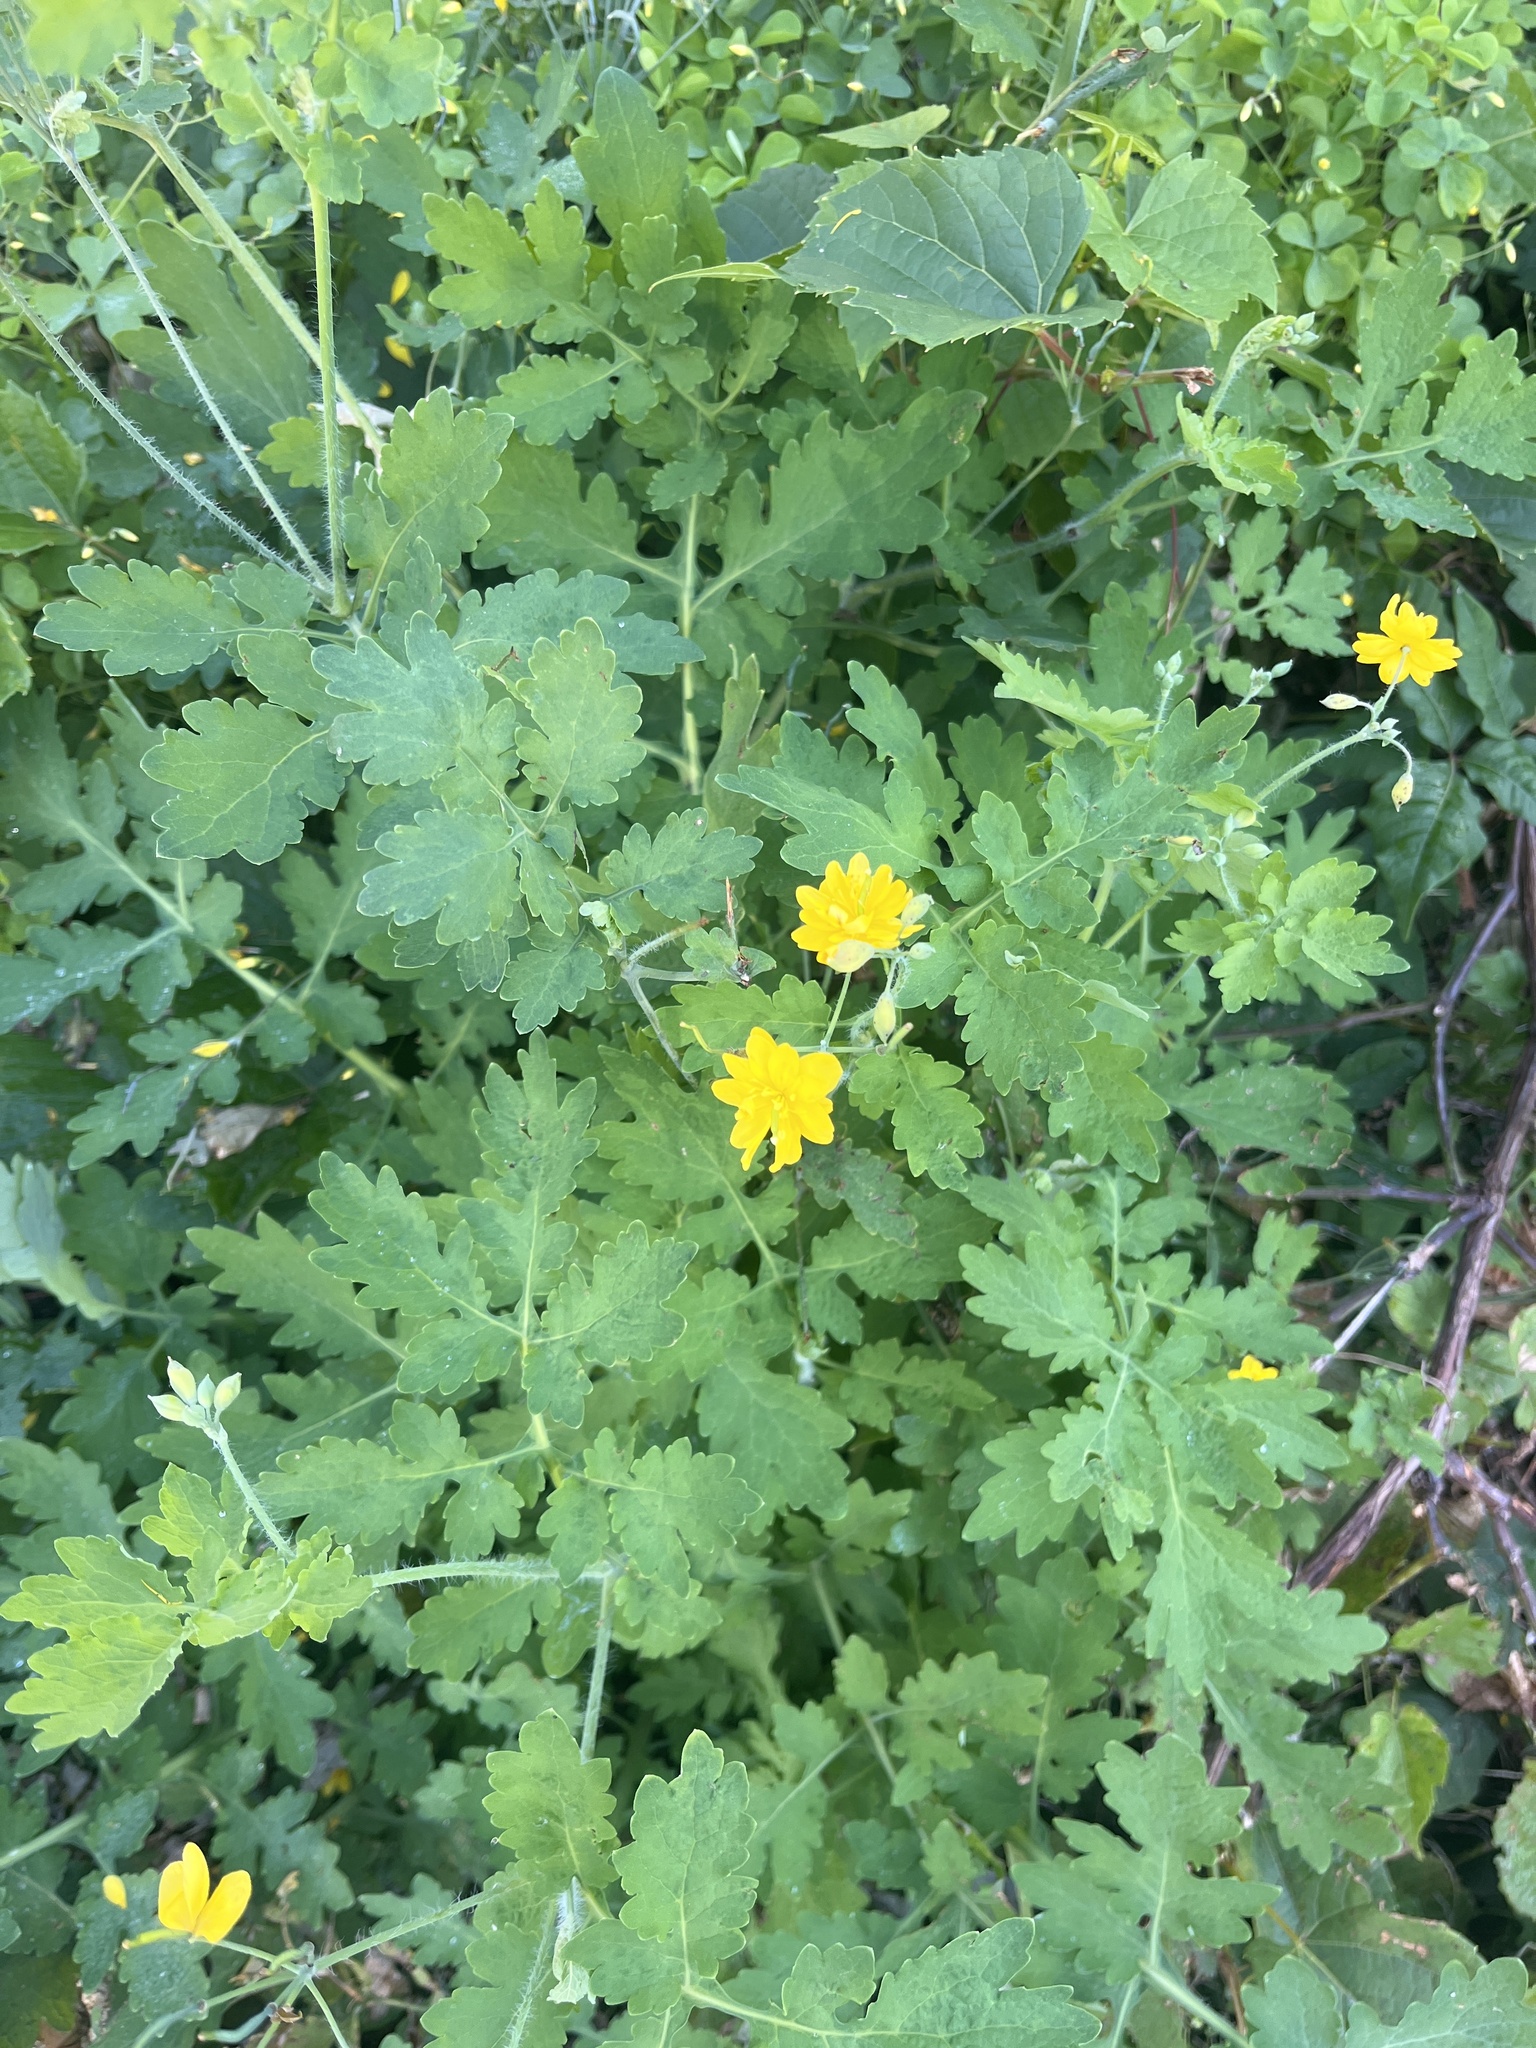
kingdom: Plantae
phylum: Tracheophyta
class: Magnoliopsida
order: Ranunculales
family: Papaveraceae
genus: Chelidonium
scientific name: Chelidonium majus
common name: Greater celandine
